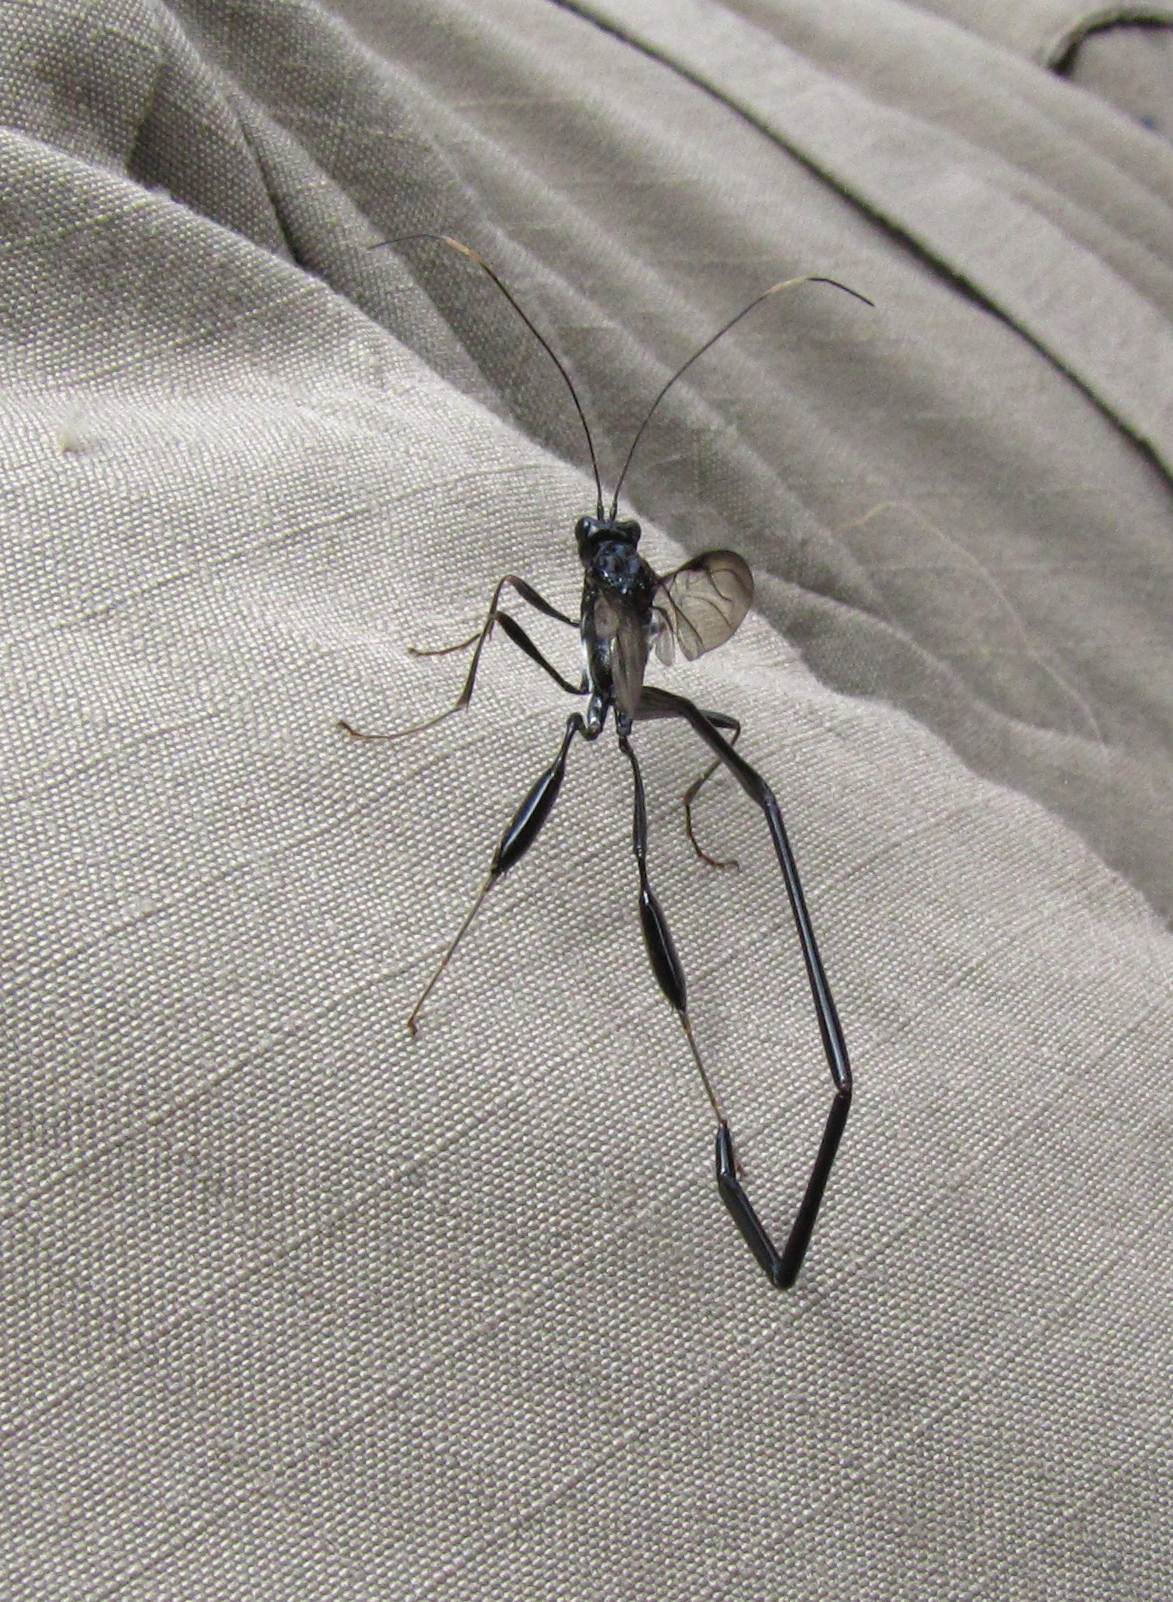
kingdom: Animalia
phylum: Arthropoda
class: Insecta
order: Hymenoptera
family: Pelecinidae
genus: Pelecinus
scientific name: Pelecinus polyturator
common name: American pelecinid wasp
